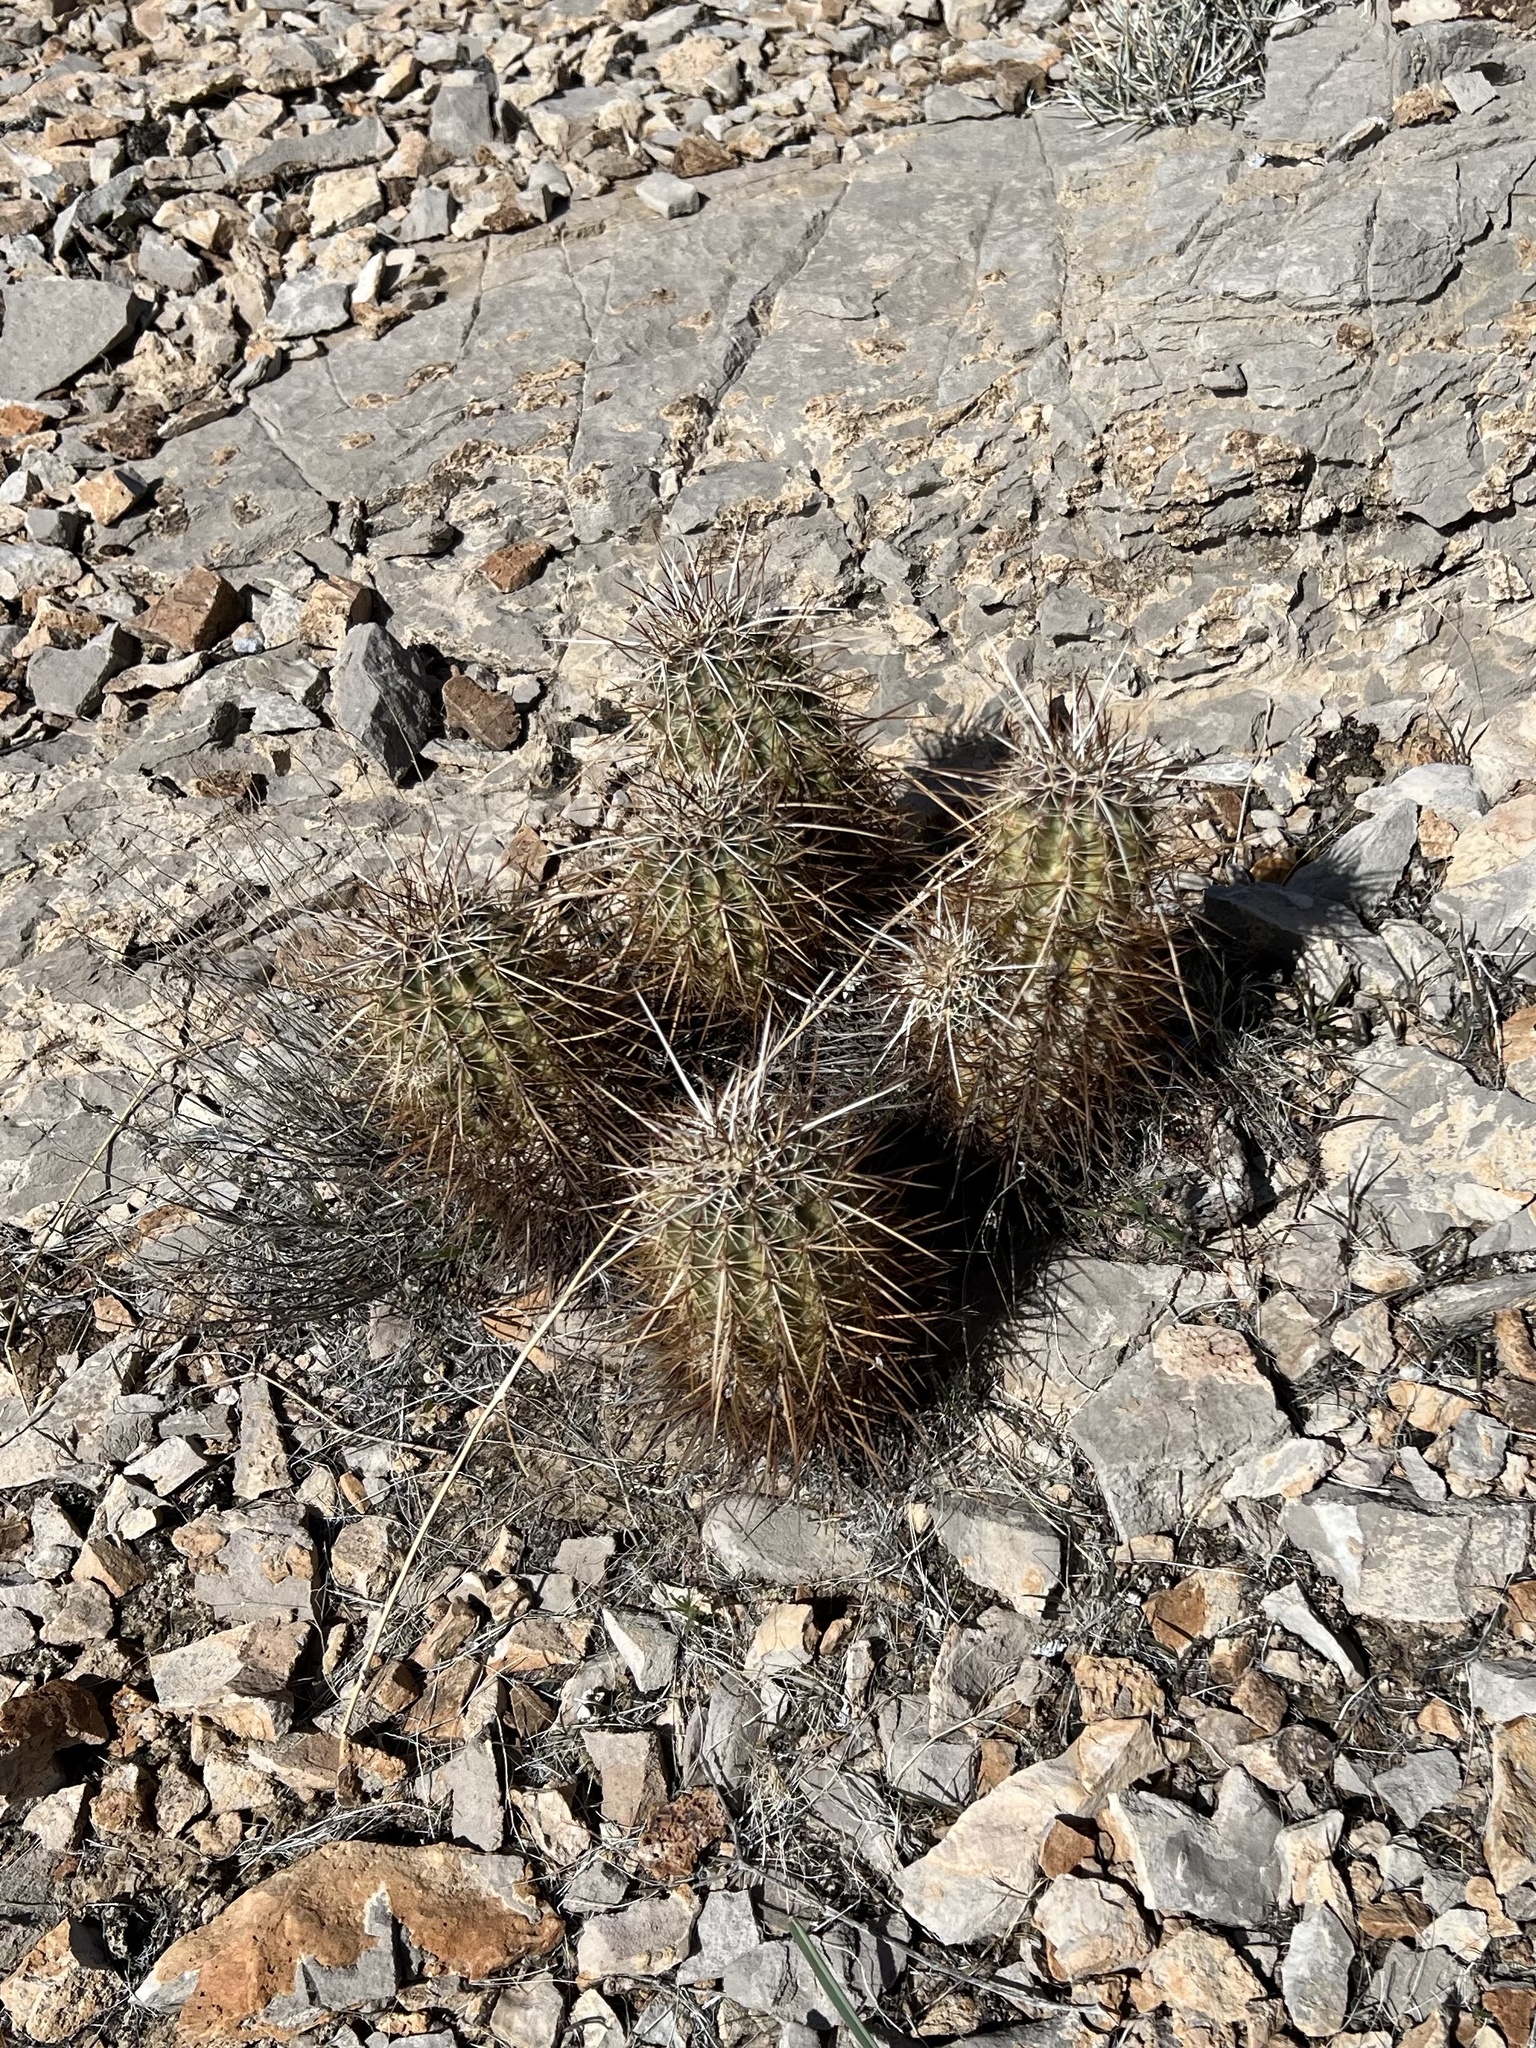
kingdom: Plantae
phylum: Tracheophyta
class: Magnoliopsida
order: Caryophyllales
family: Cactaceae
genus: Echinocereus
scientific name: Echinocereus engelmannii
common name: Engelmann's hedgehog cactus
